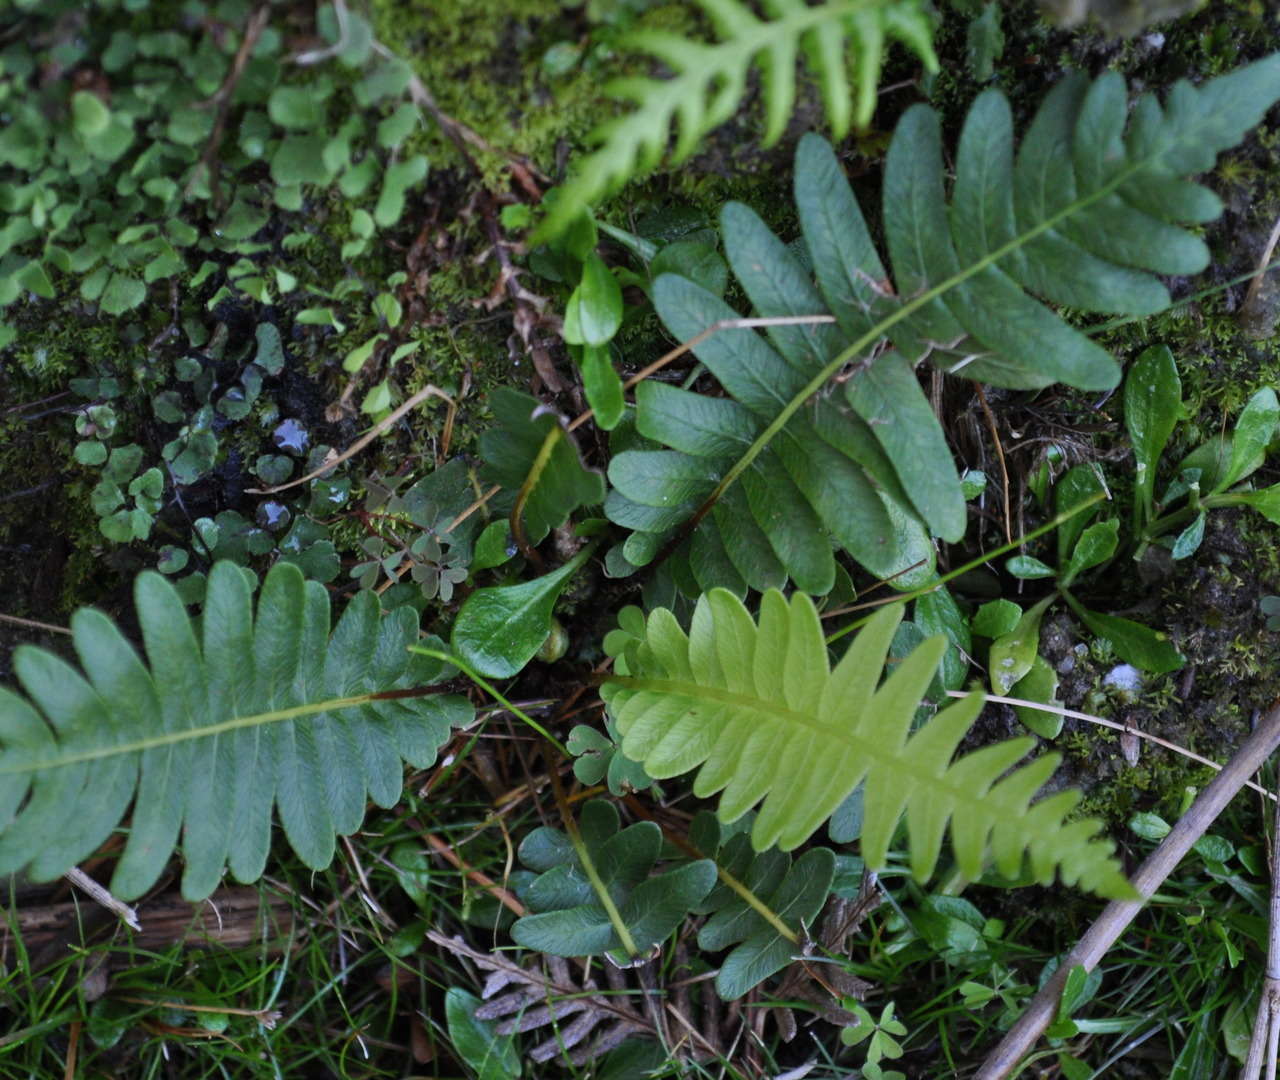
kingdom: Plantae
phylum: Tracheophyta
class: Polypodiopsida
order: Polypodiales
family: Blechnaceae
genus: Lomaria
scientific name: Lomaria nuda
